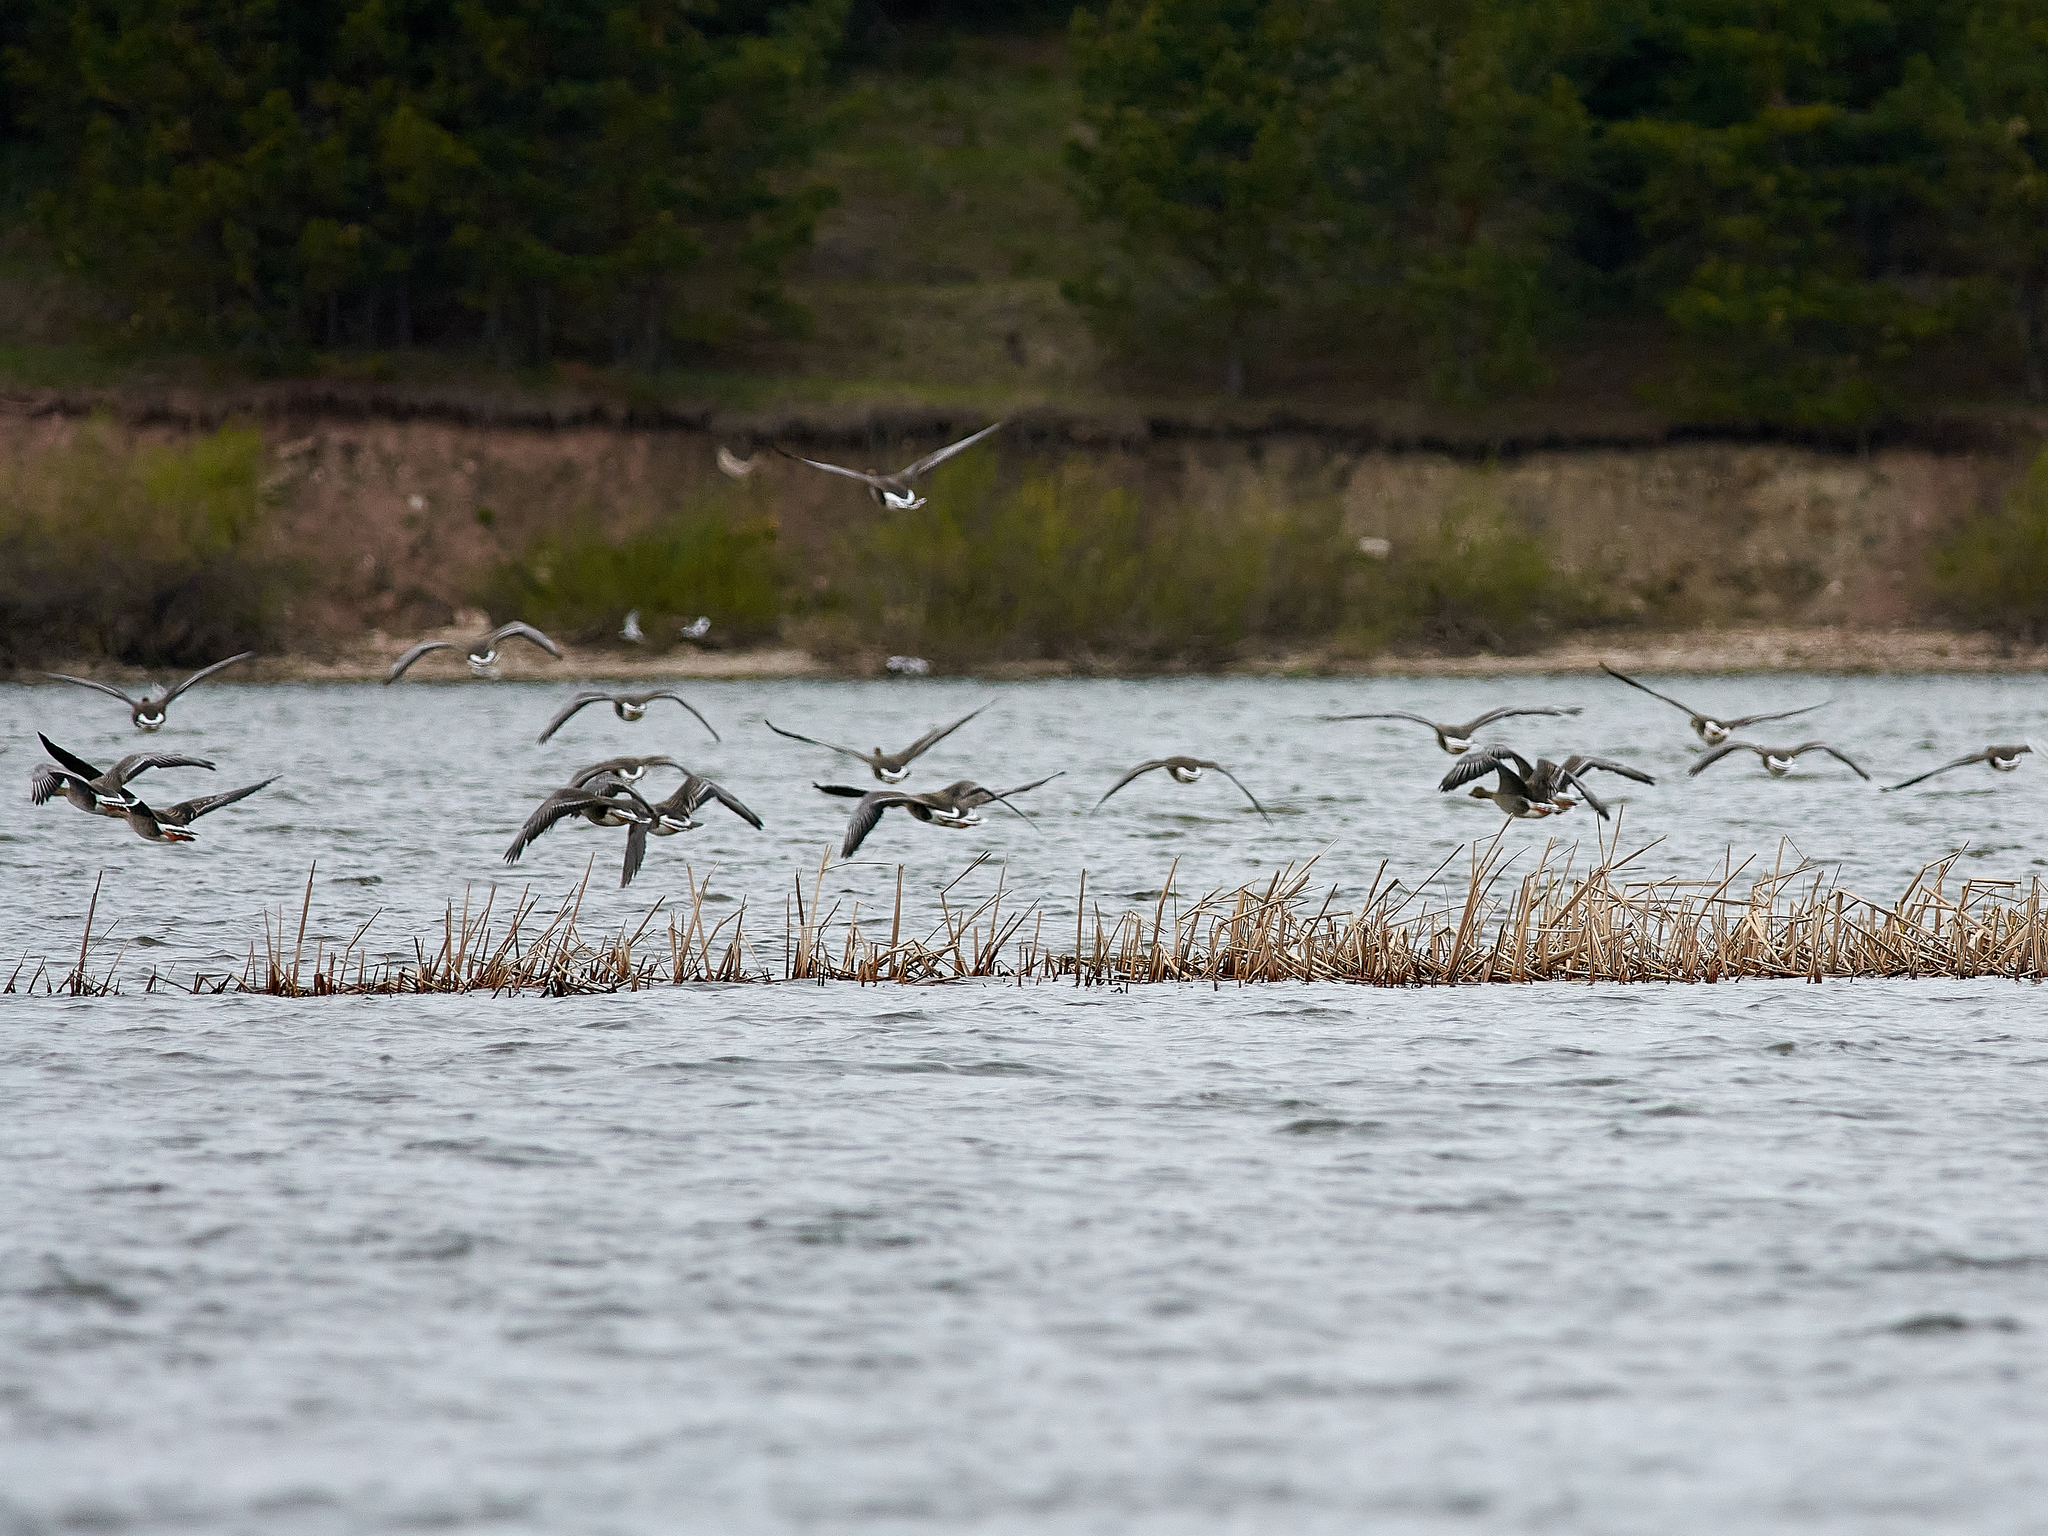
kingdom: Animalia
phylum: Chordata
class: Aves
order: Anseriformes
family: Anatidae
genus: Anser
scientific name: Anser albifrons
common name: Greater white-fronted goose
